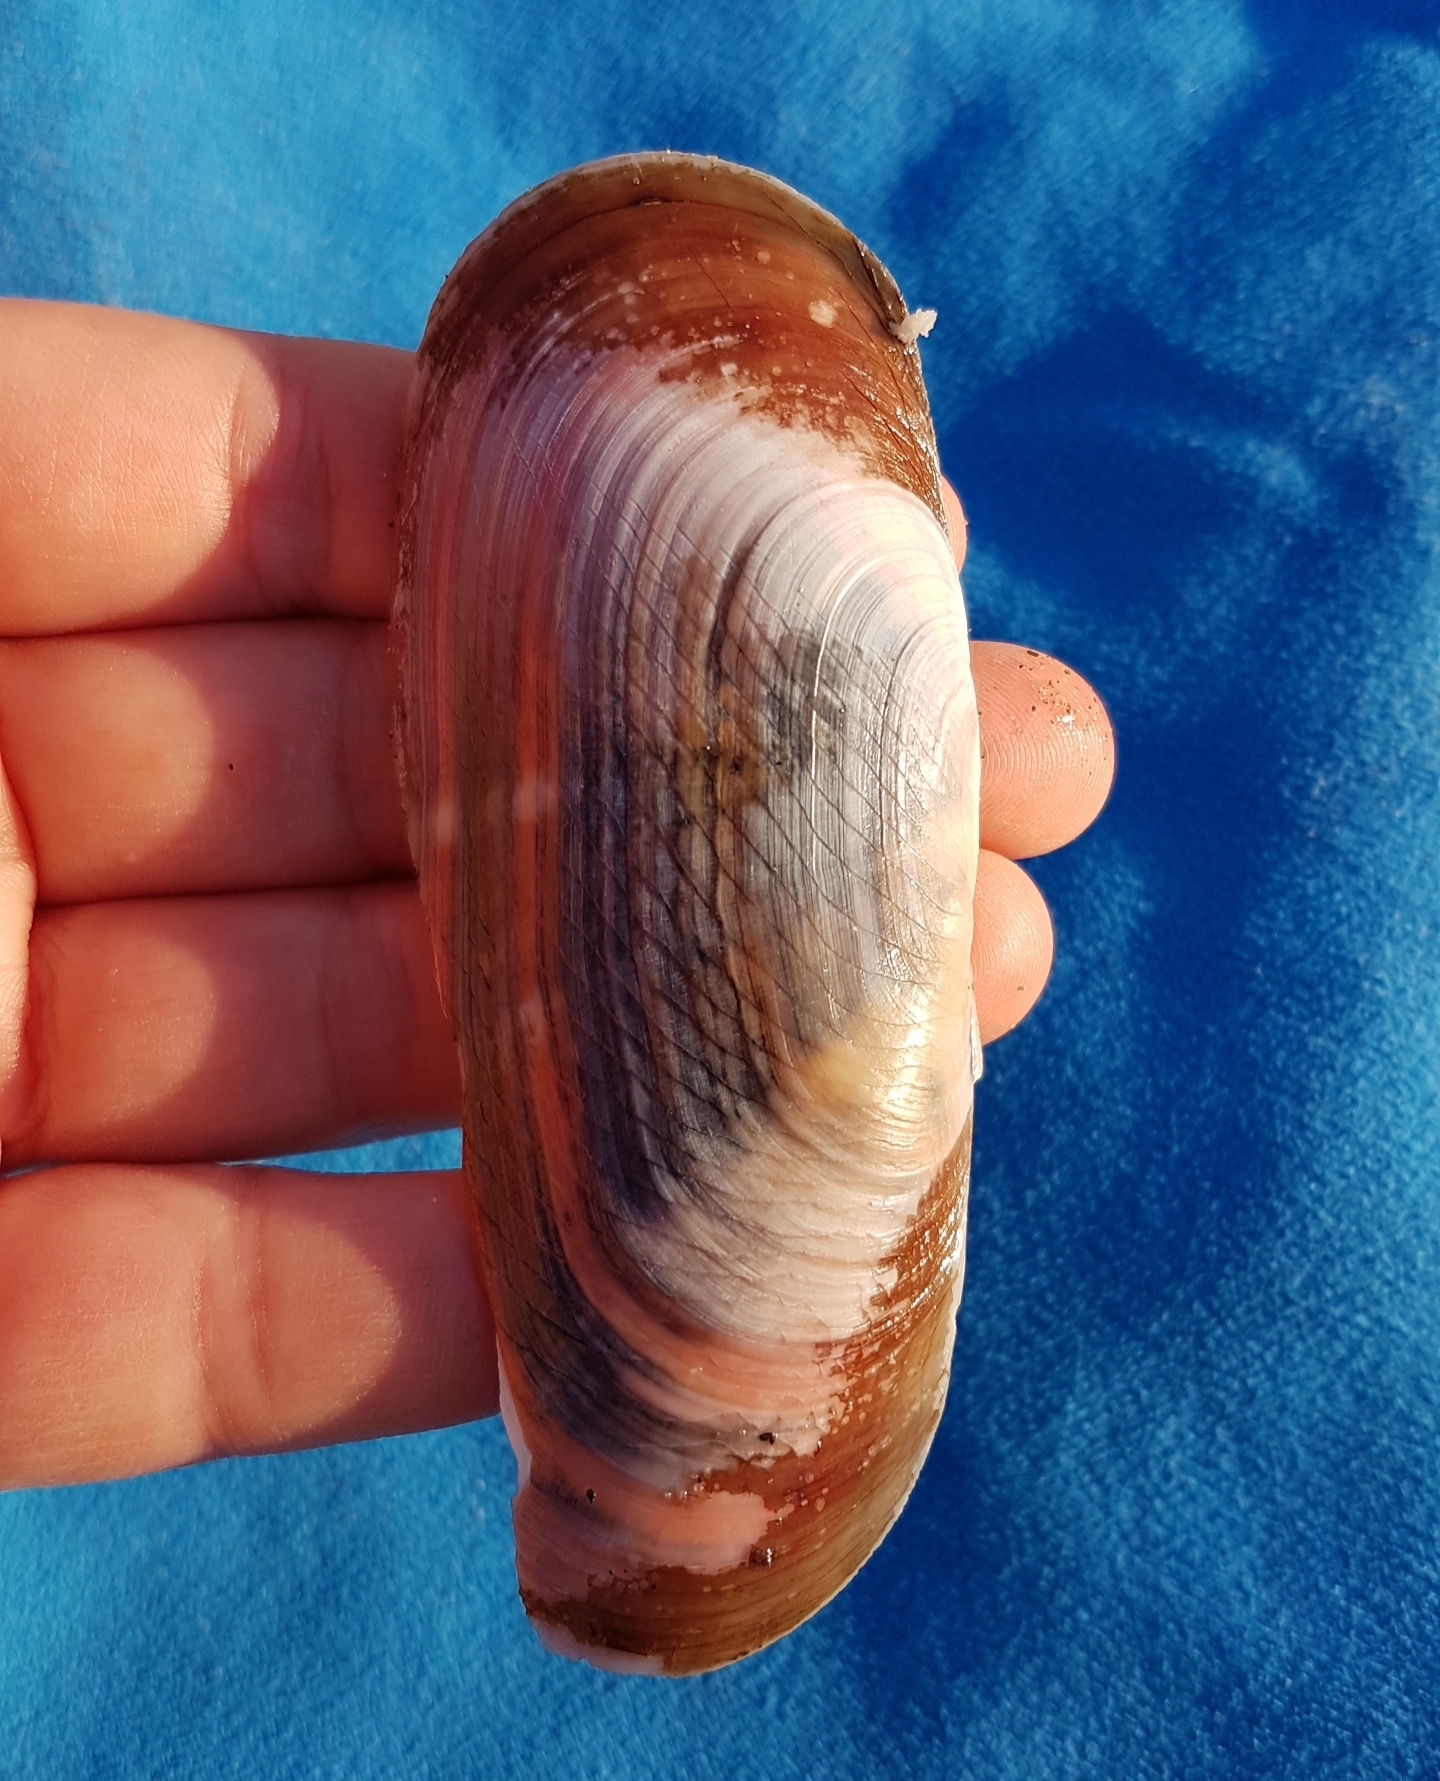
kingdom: Animalia
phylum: Mollusca
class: Bivalvia
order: Cardiida
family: Solecurtidae
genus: Solecurtus
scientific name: Solecurtus strigilatus
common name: Rosy razor clam
